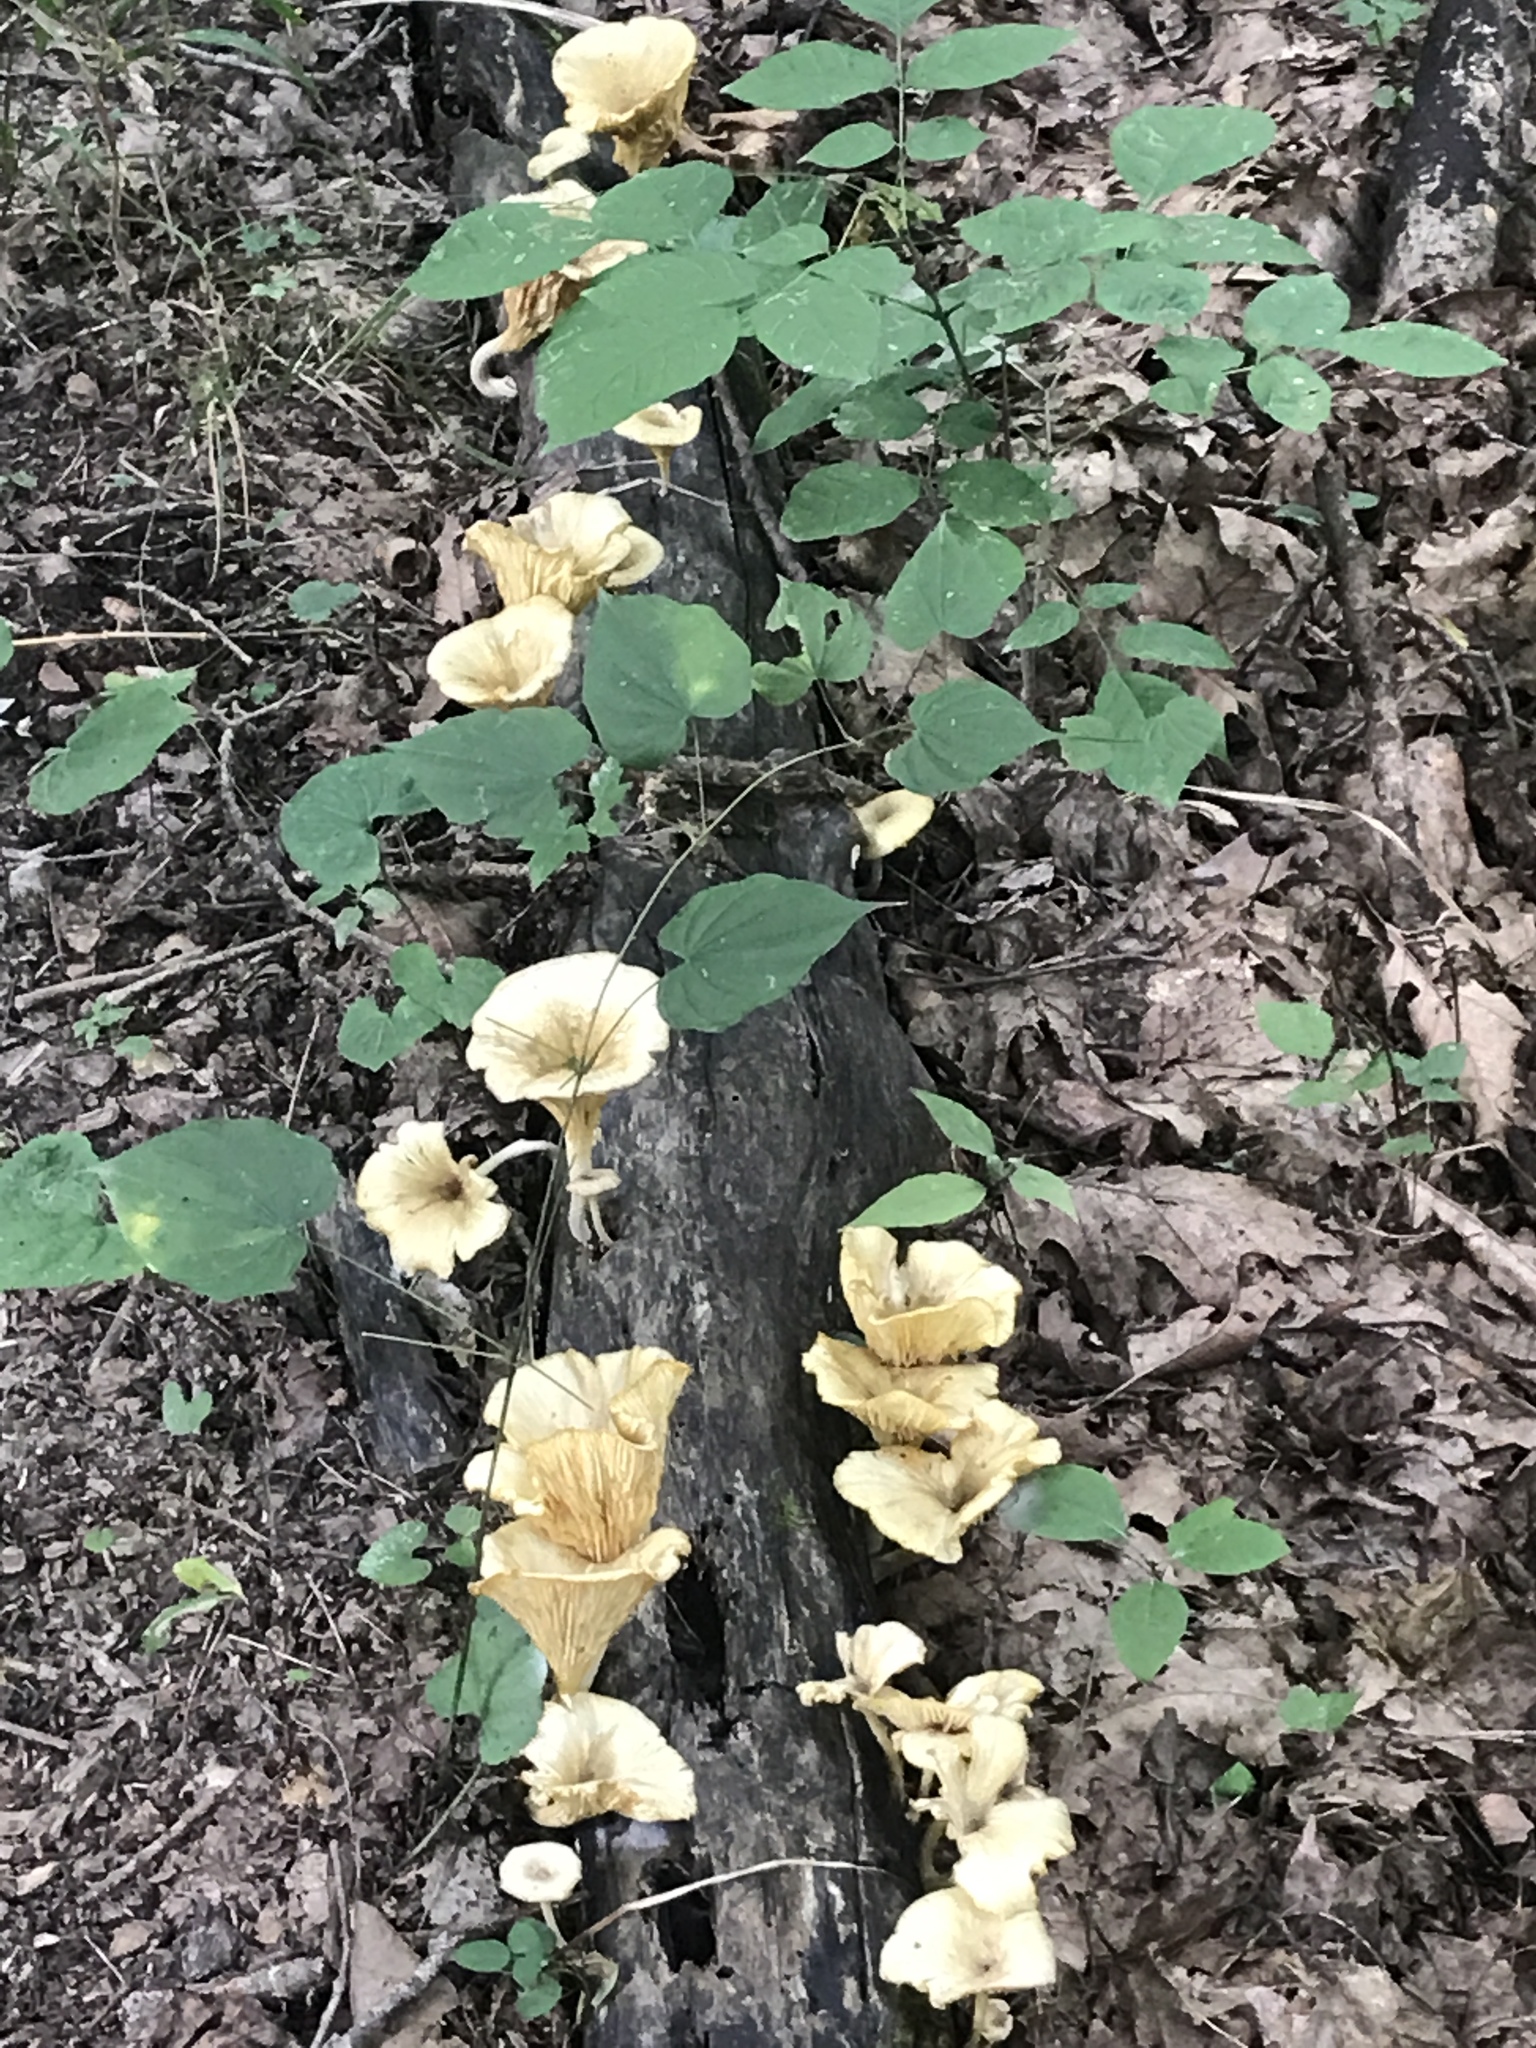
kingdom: Fungi
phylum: Basidiomycota
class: Agaricomycetes
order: Agaricales
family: Marasmiaceae
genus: Gerronema
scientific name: Gerronema strombodes
